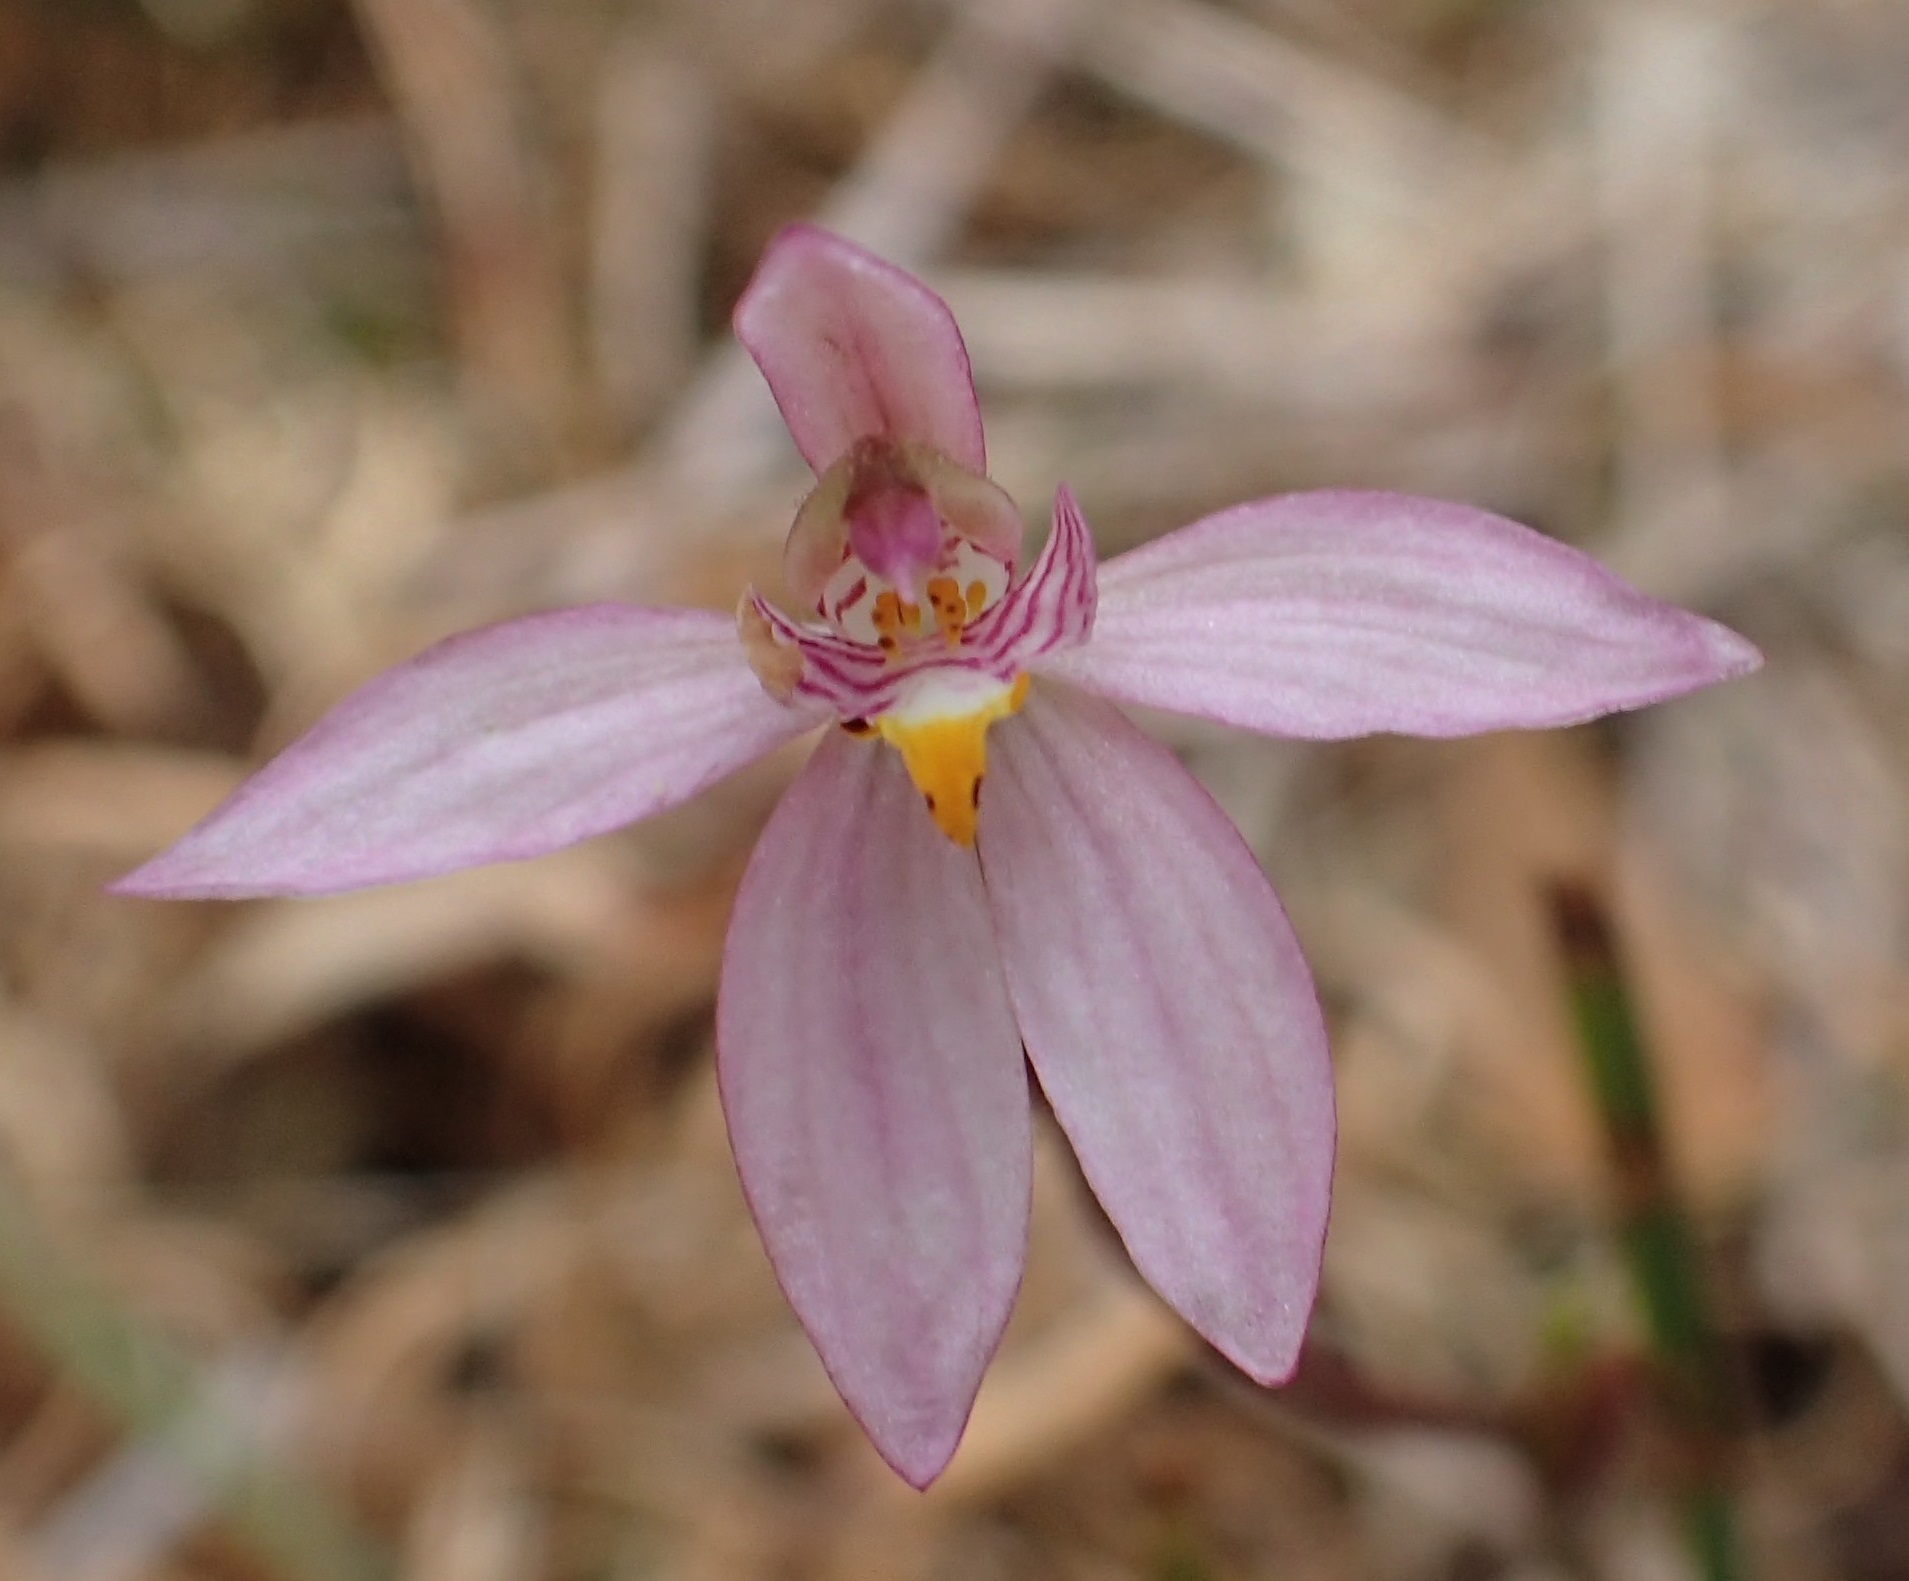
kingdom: Plantae
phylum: Tracheophyta
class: Liliopsida
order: Asparagales
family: Orchidaceae
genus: Caladenia
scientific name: Caladenia alata
